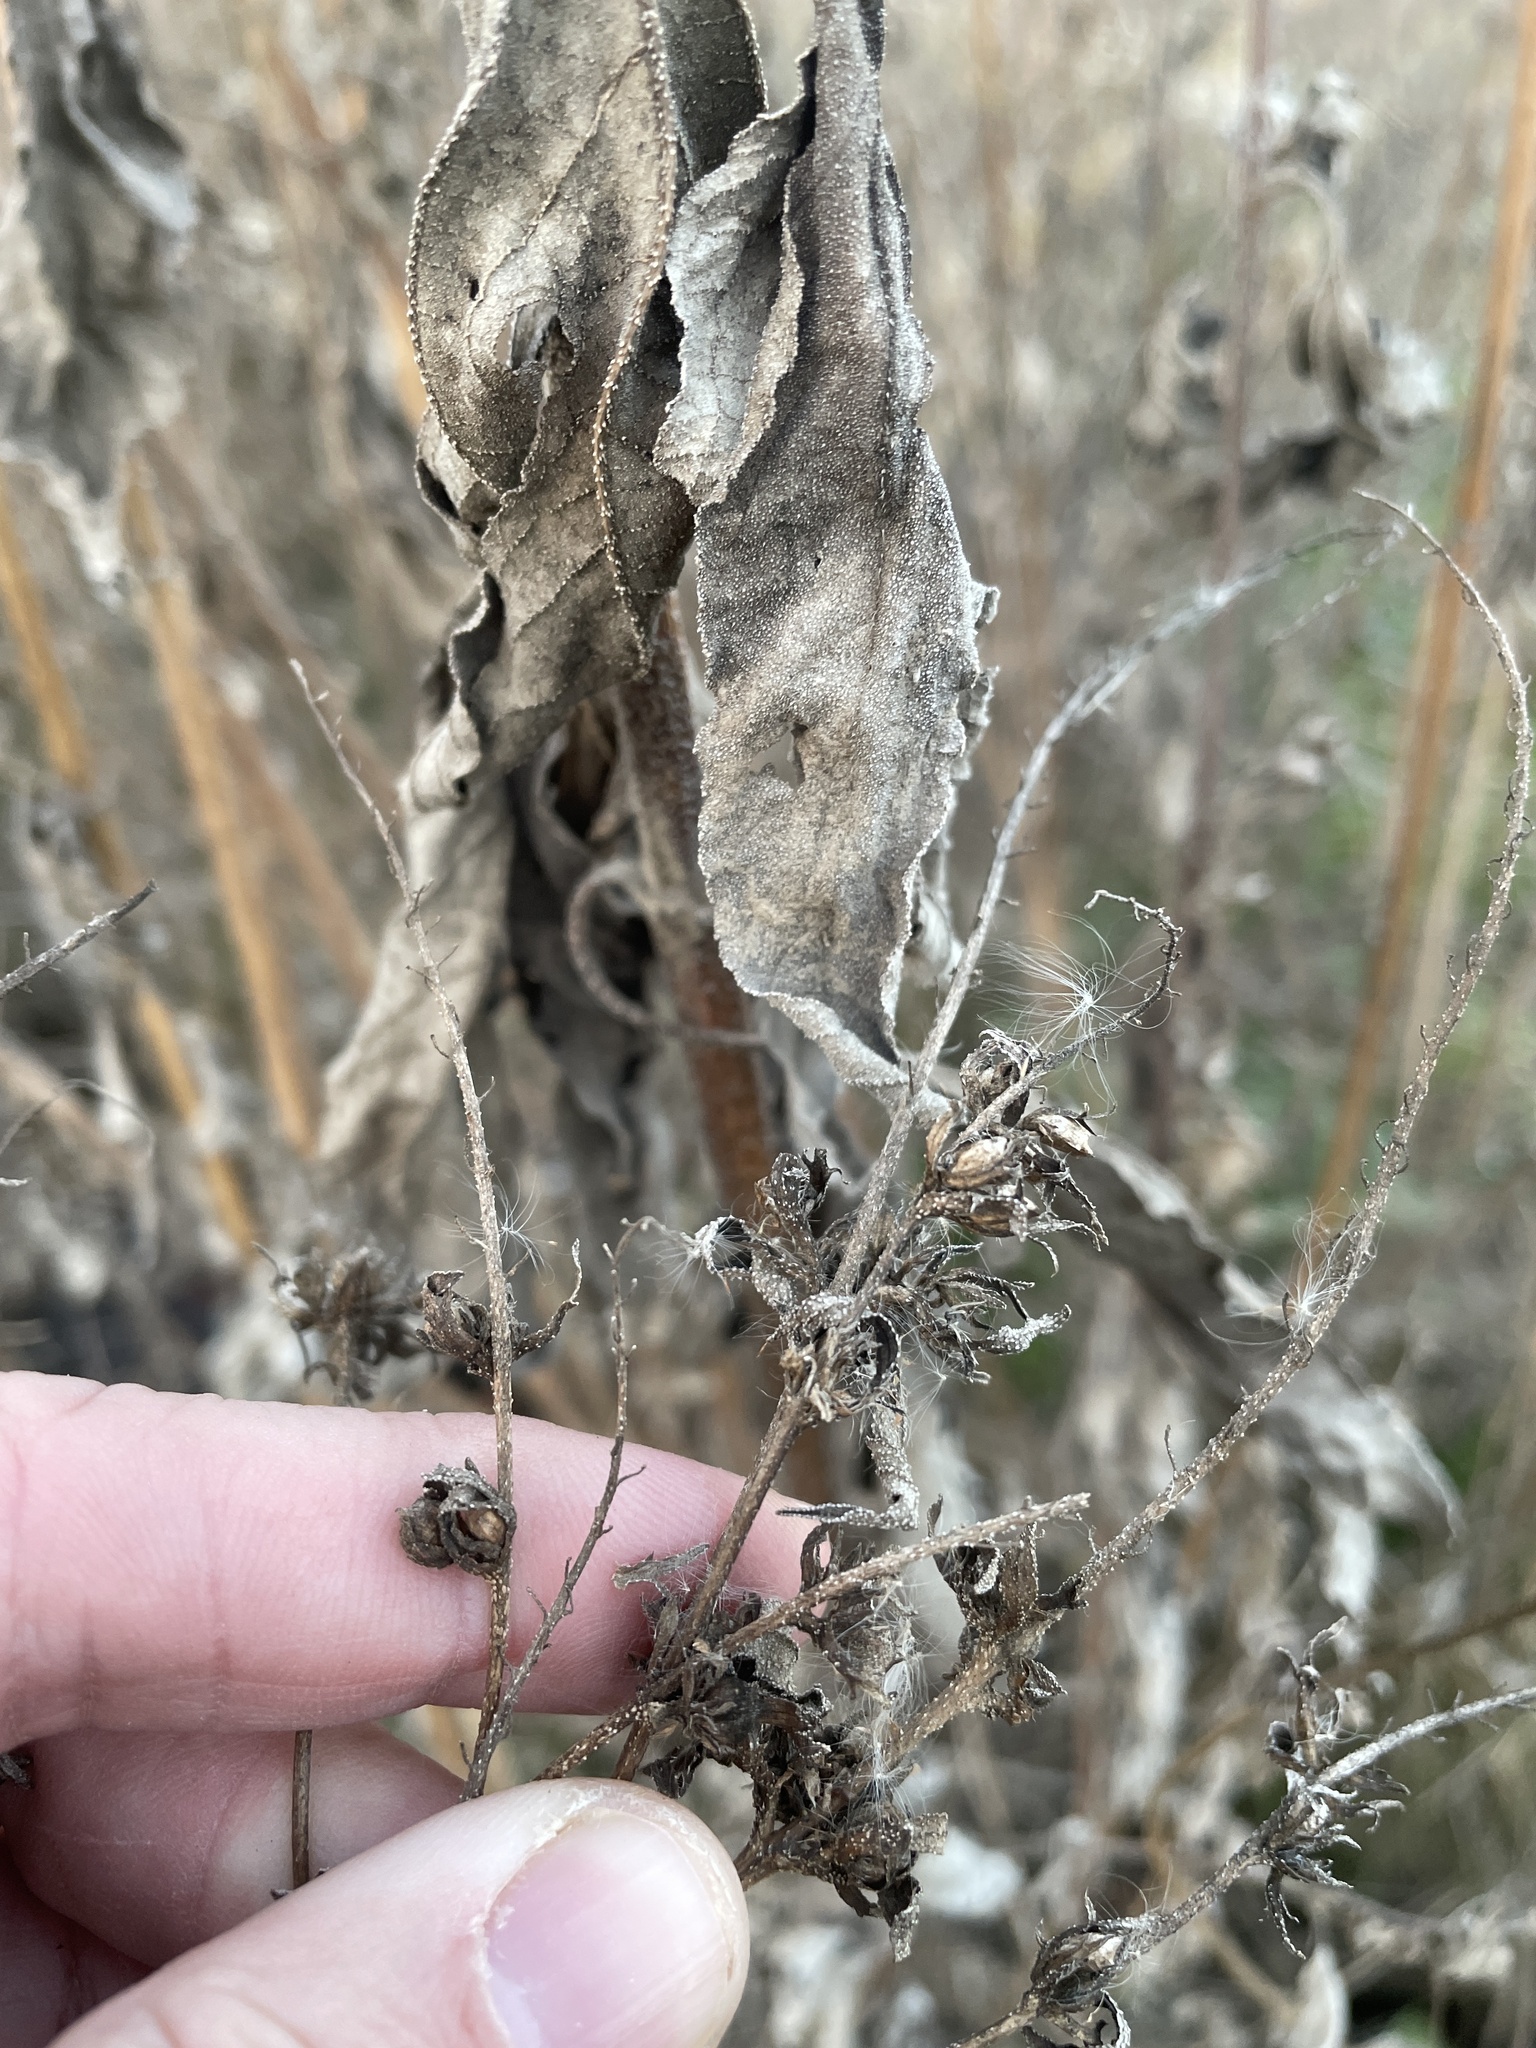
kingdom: Plantae
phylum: Tracheophyta
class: Magnoliopsida
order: Asterales
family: Asteraceae
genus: Ambrosia
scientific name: Ambrosia trifida
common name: Giant ragweed
